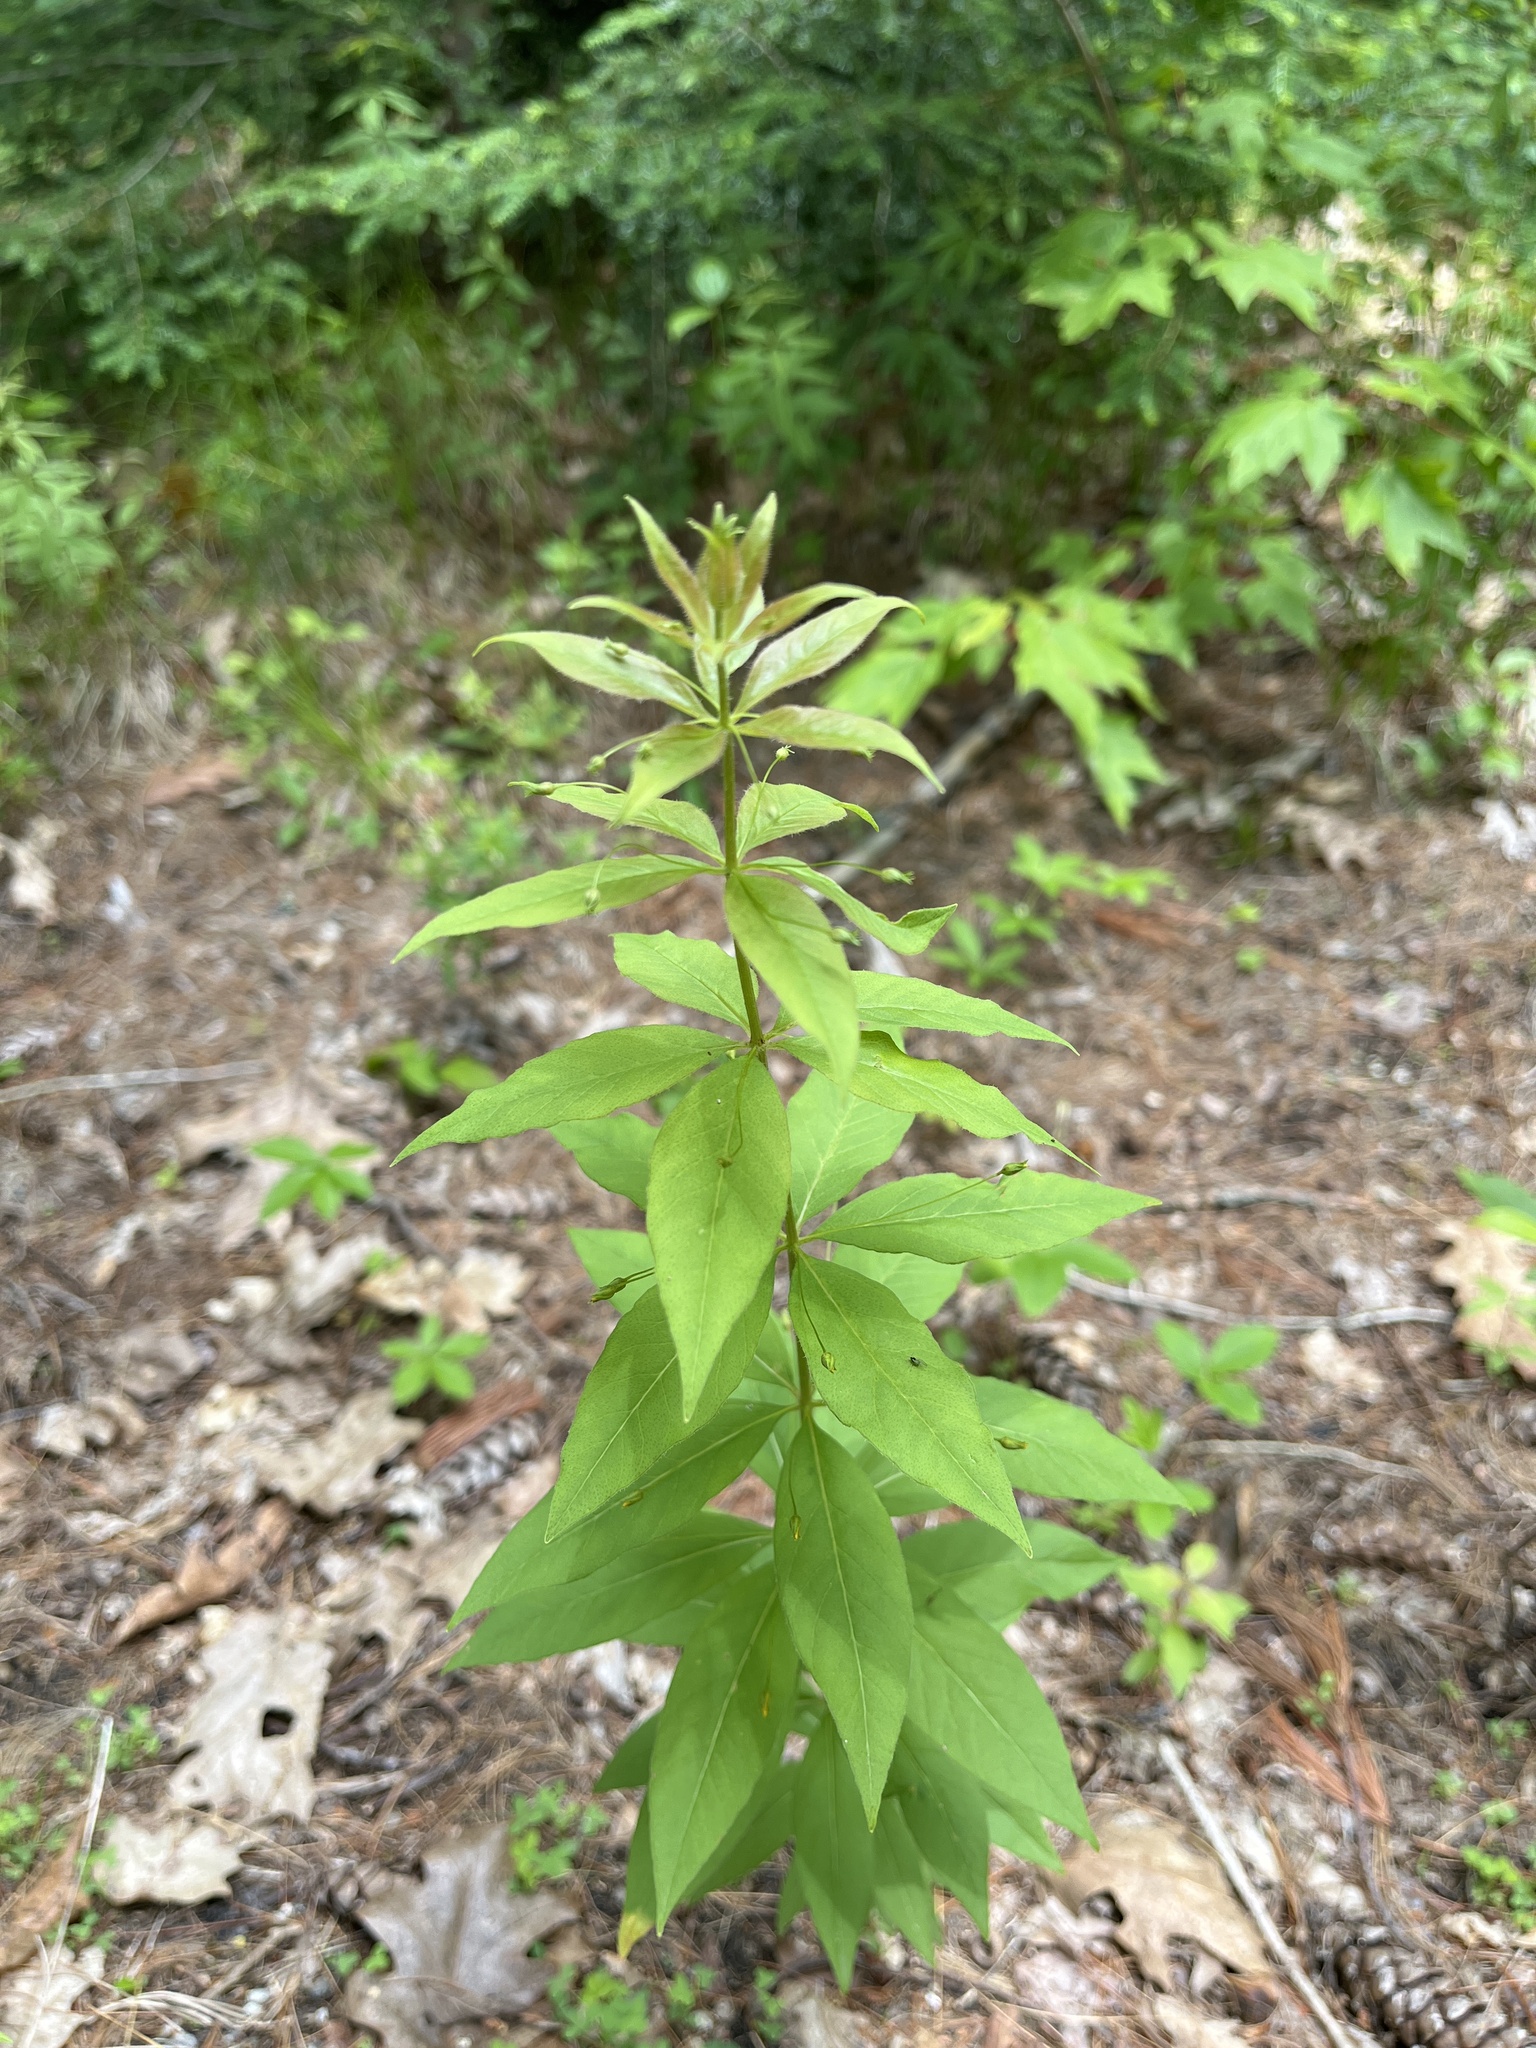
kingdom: Plantae
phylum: Tracheophyta
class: Magnoliopsida
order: Ericales
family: Primulaceae
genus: Lysimachia
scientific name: Lysimachia quadrifolia
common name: Whorled loosestrife
